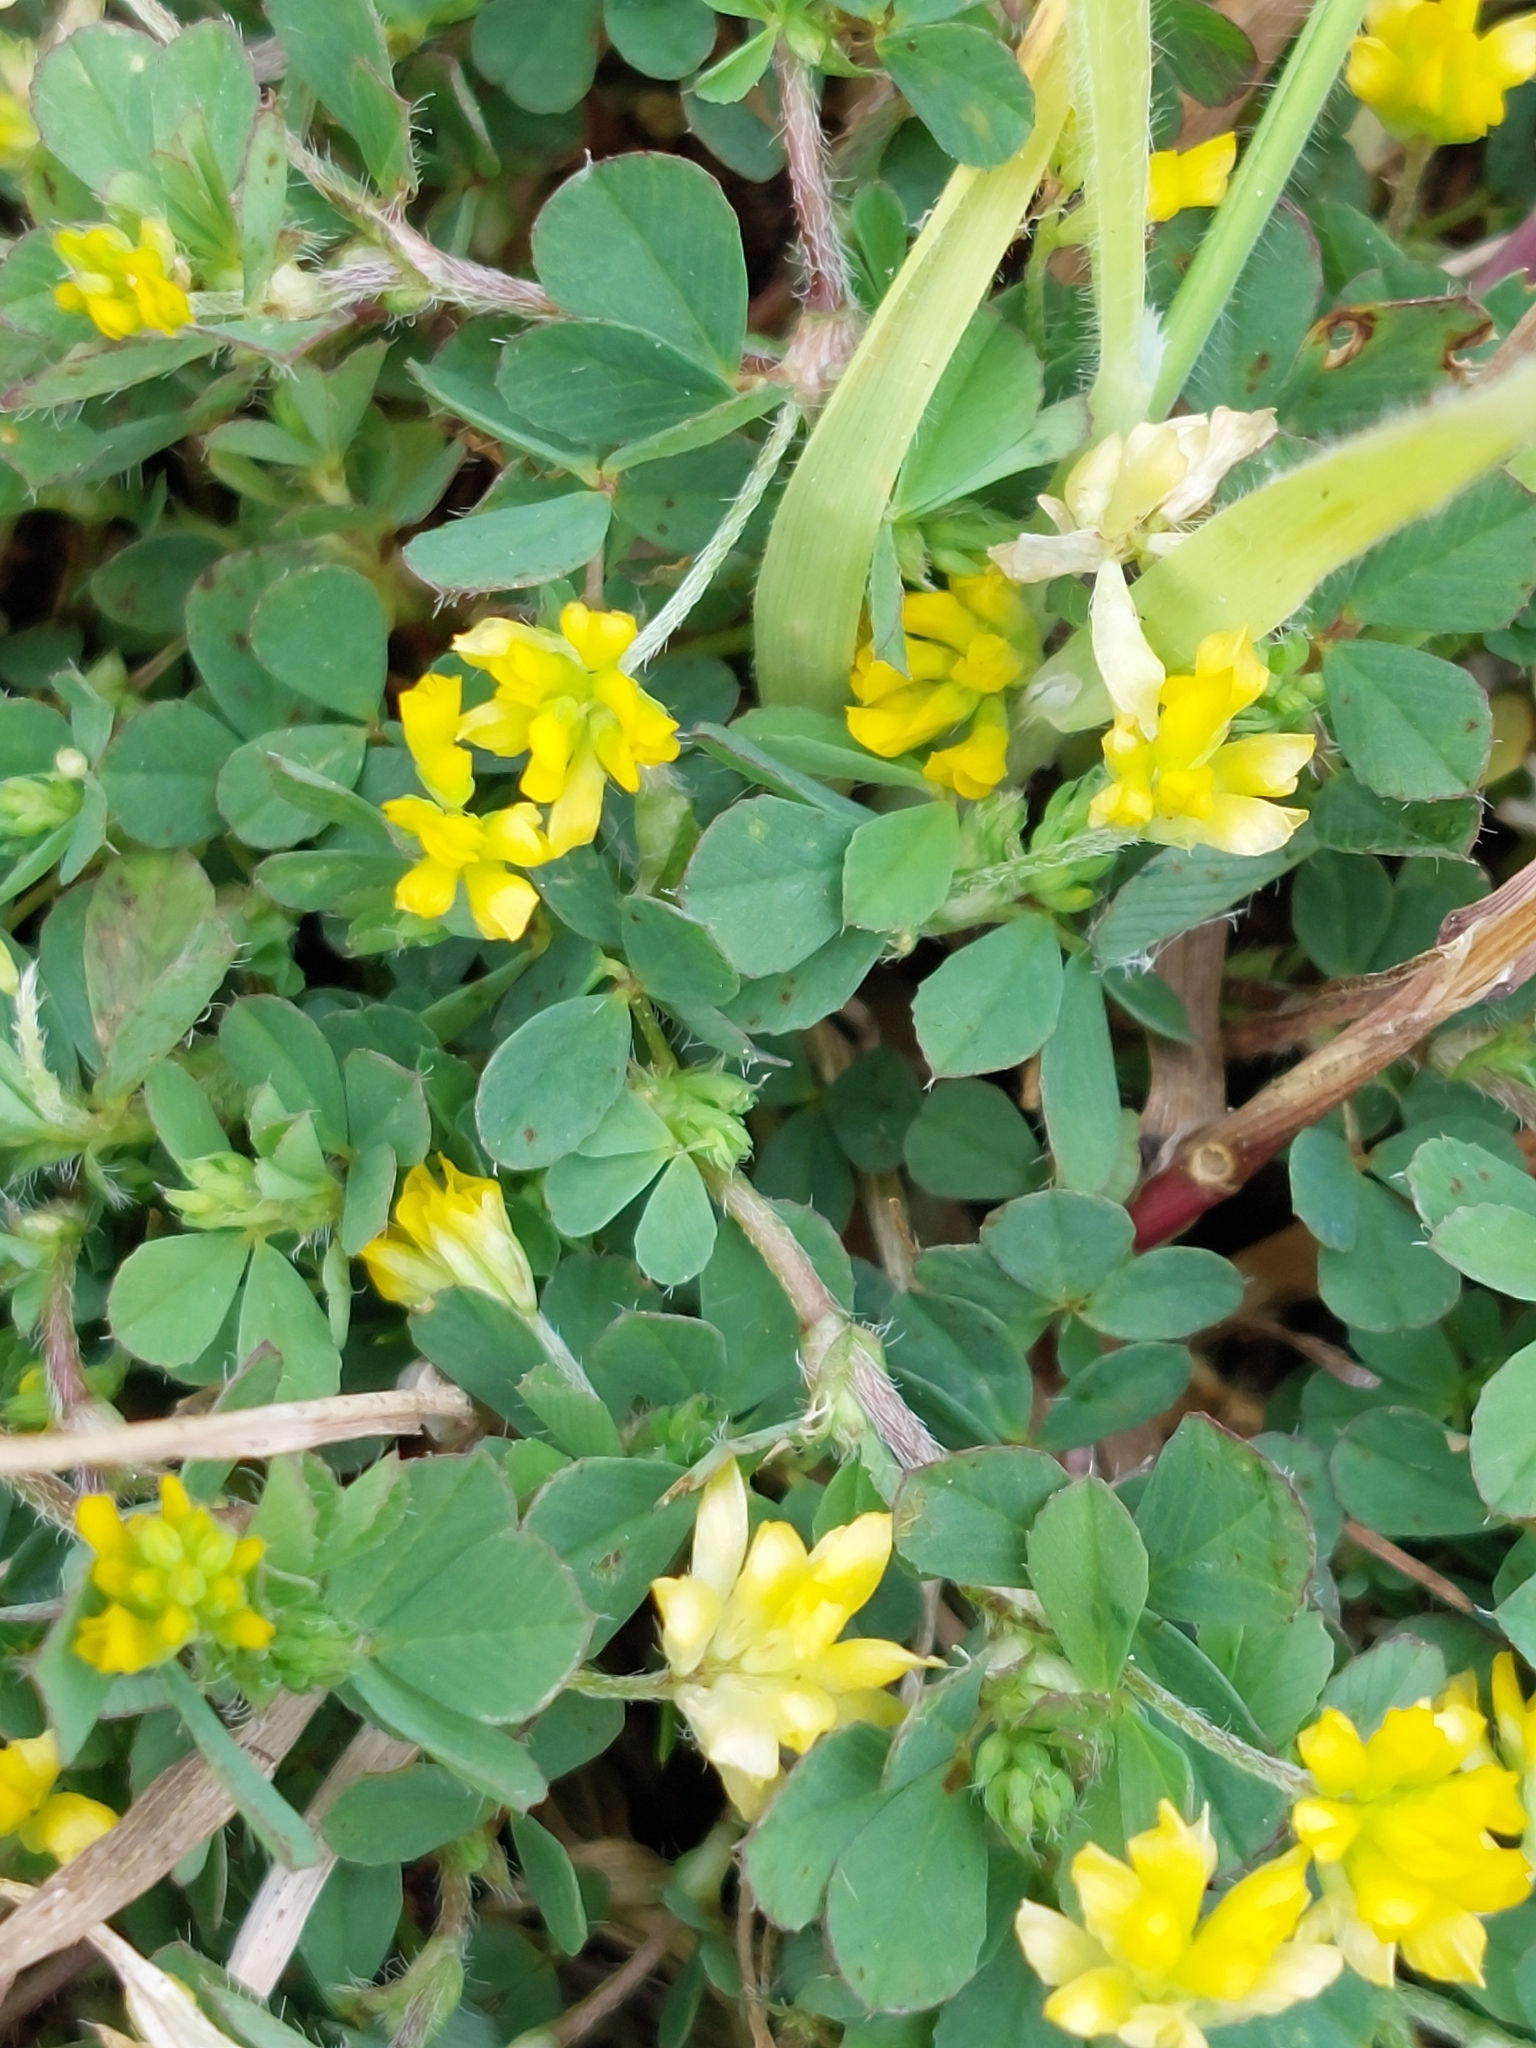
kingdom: Plantae
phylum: Tracheophyta
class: Magnoliopsida
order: Fabales
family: Fabaceae
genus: Trifolium
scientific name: Trifolium dubium
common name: Suckling clover
